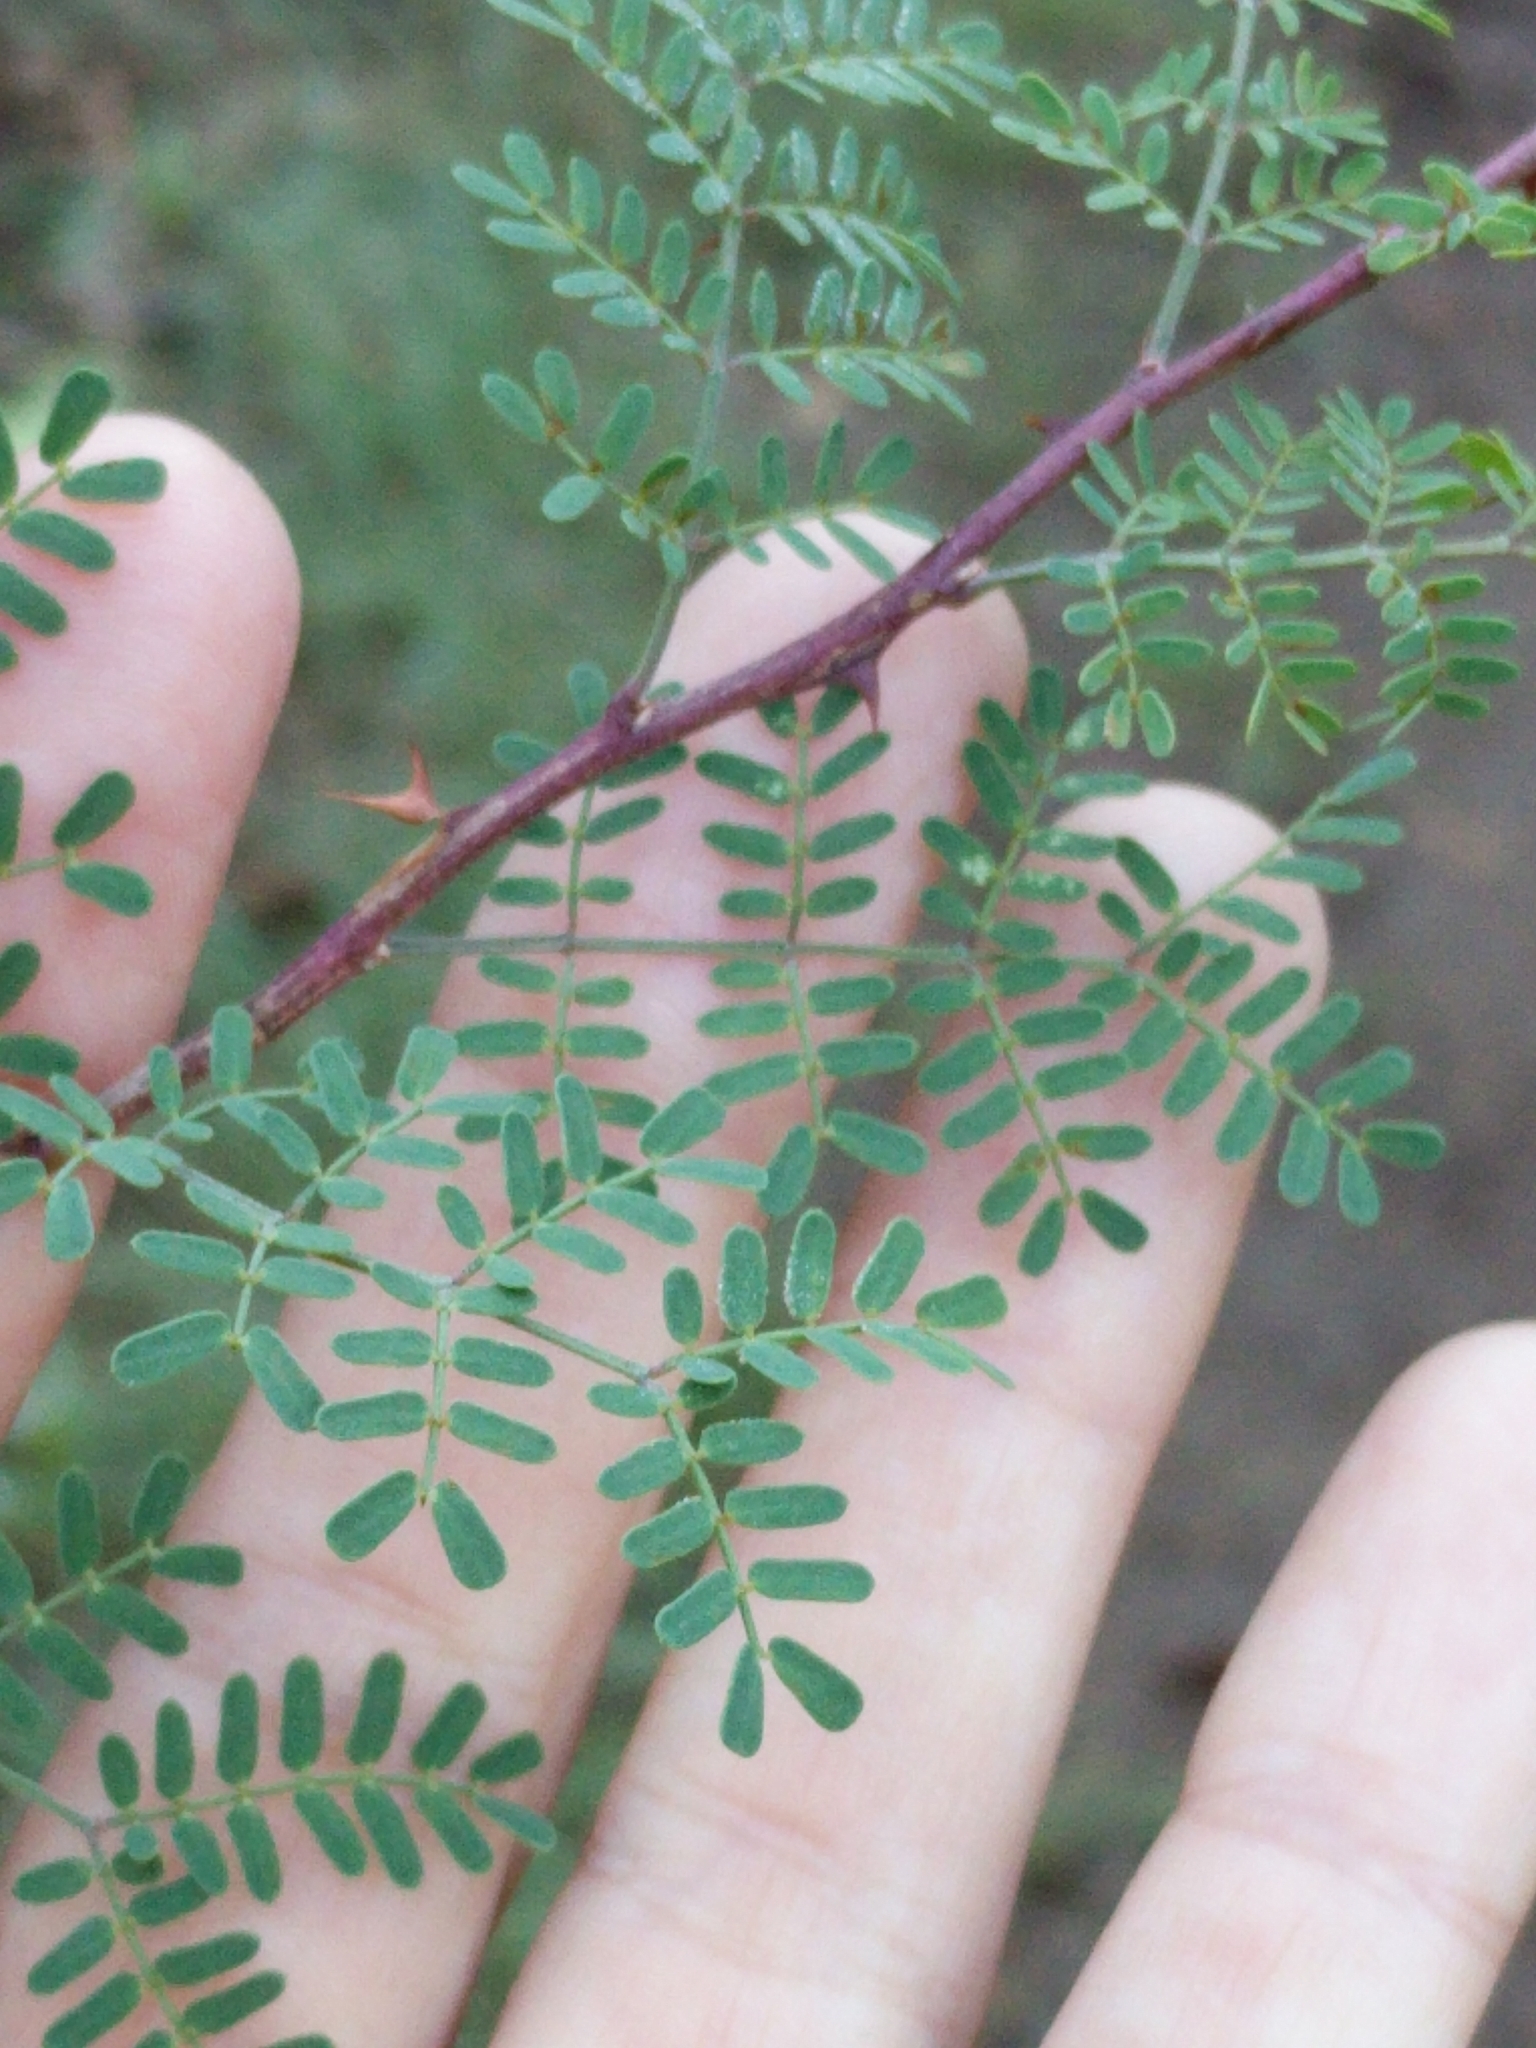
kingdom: Plantae
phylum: Tracheophyta
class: Magnoliopsida
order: Fabales
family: Fabaceae
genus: Mimosa
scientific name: Mimosa borealis
